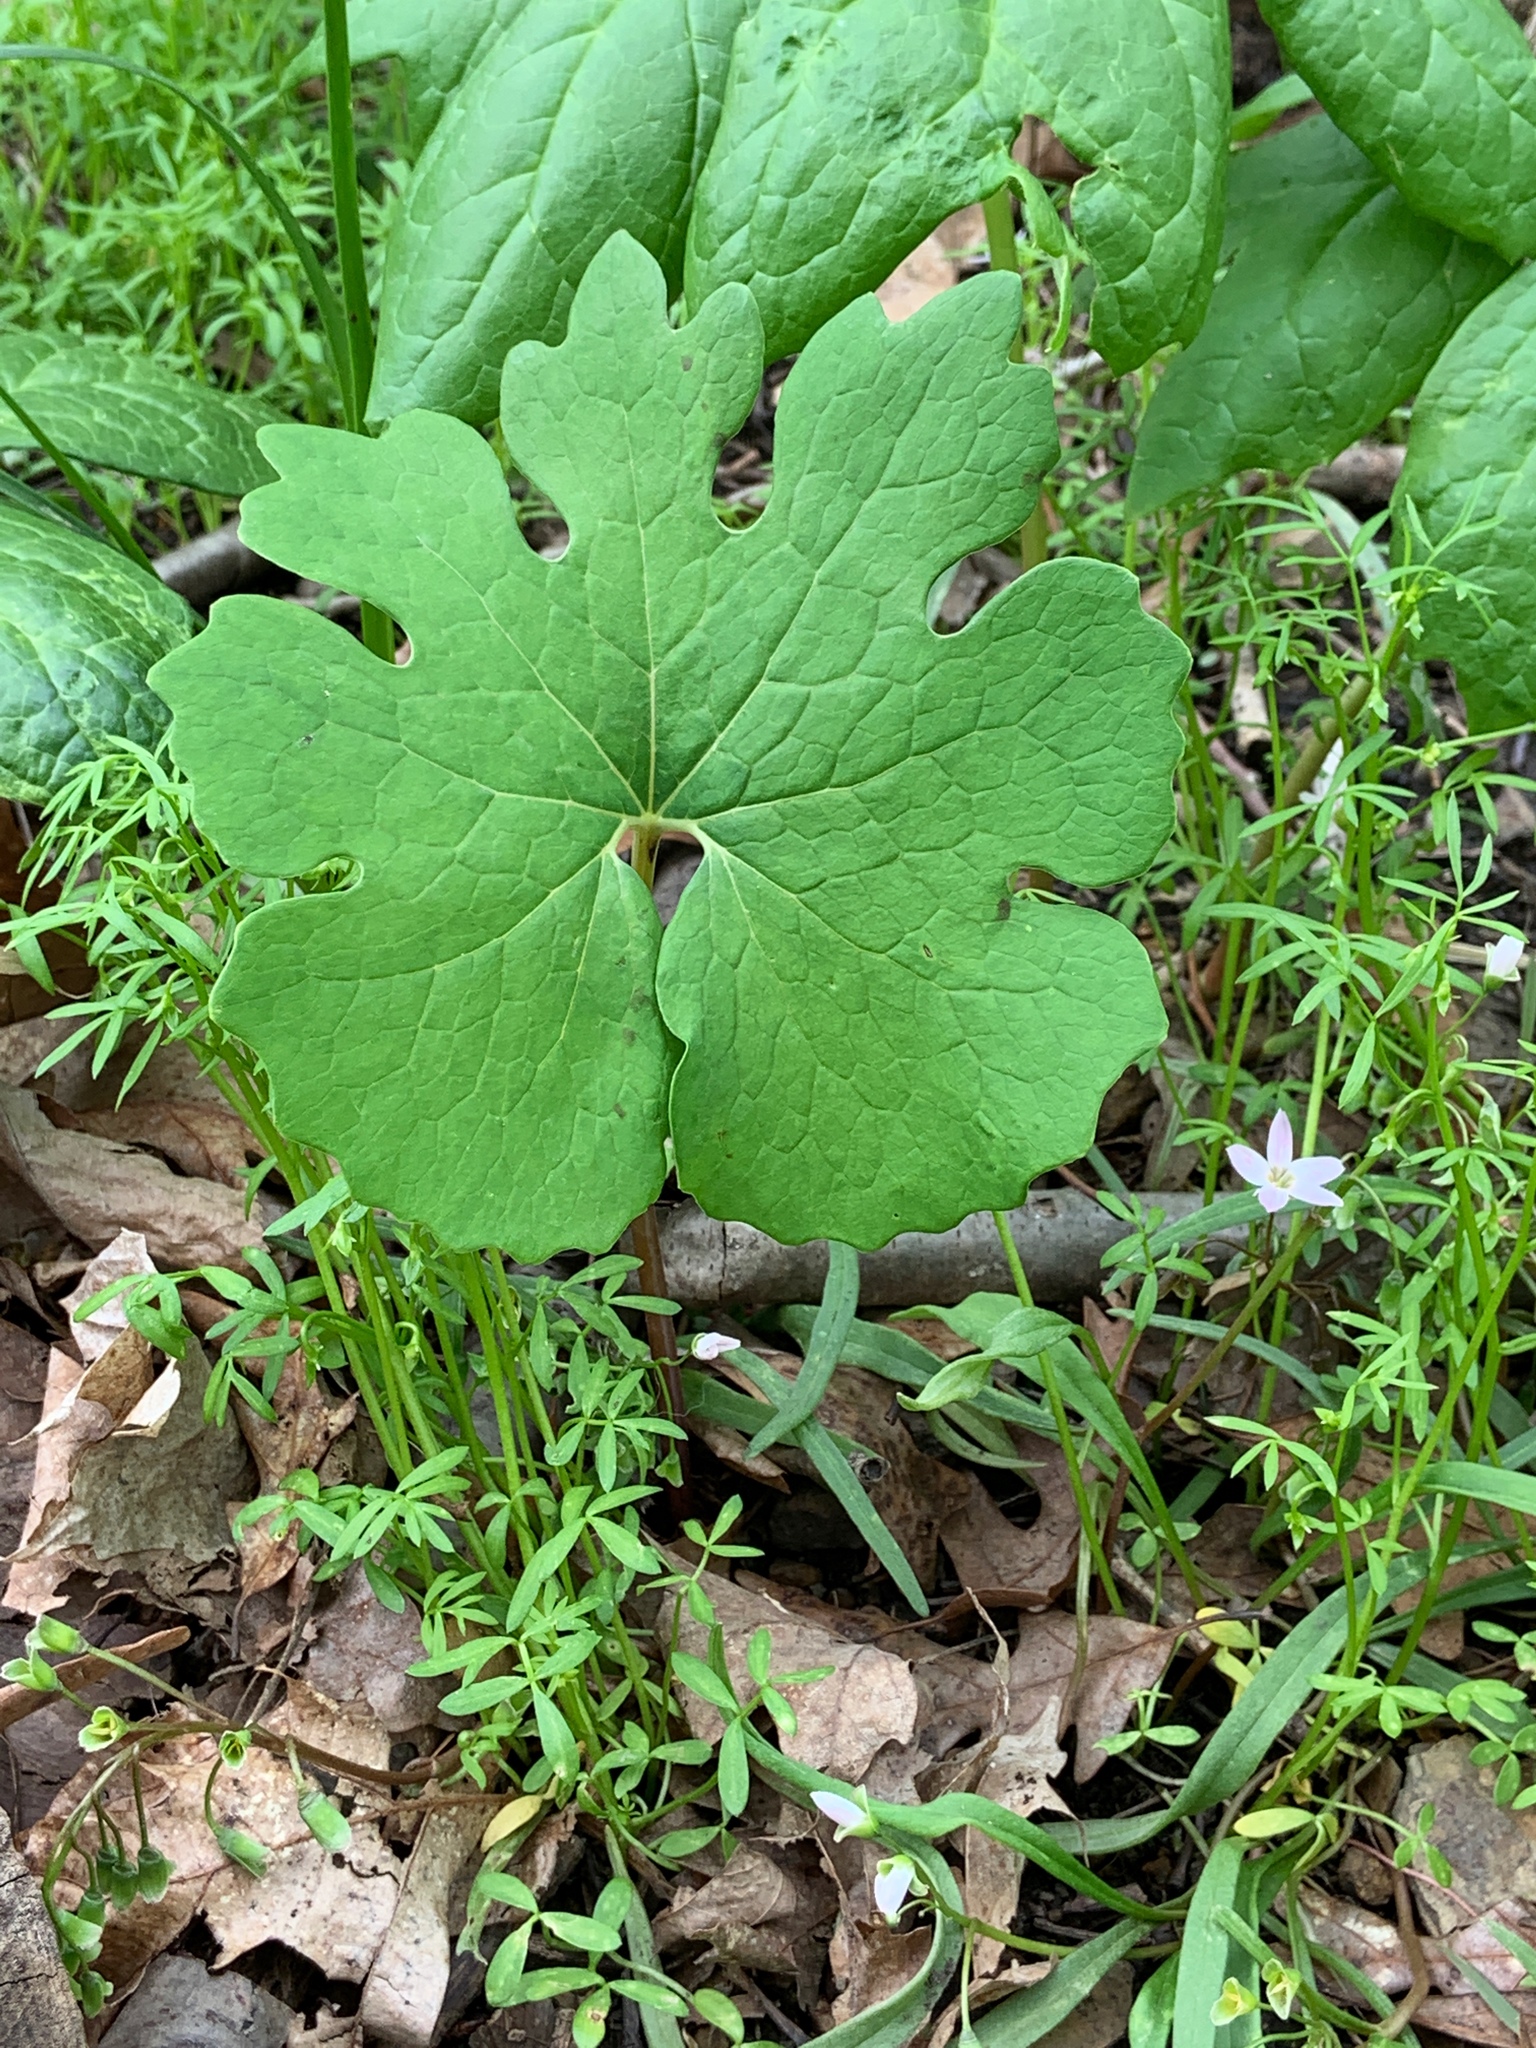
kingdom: Plantae
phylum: Tracheophyta
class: Magnoliopsida
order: Ranunculales
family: Papaveraceae
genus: Sanguinaria
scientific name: Sanguinaria canadensis
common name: Bloodroot
